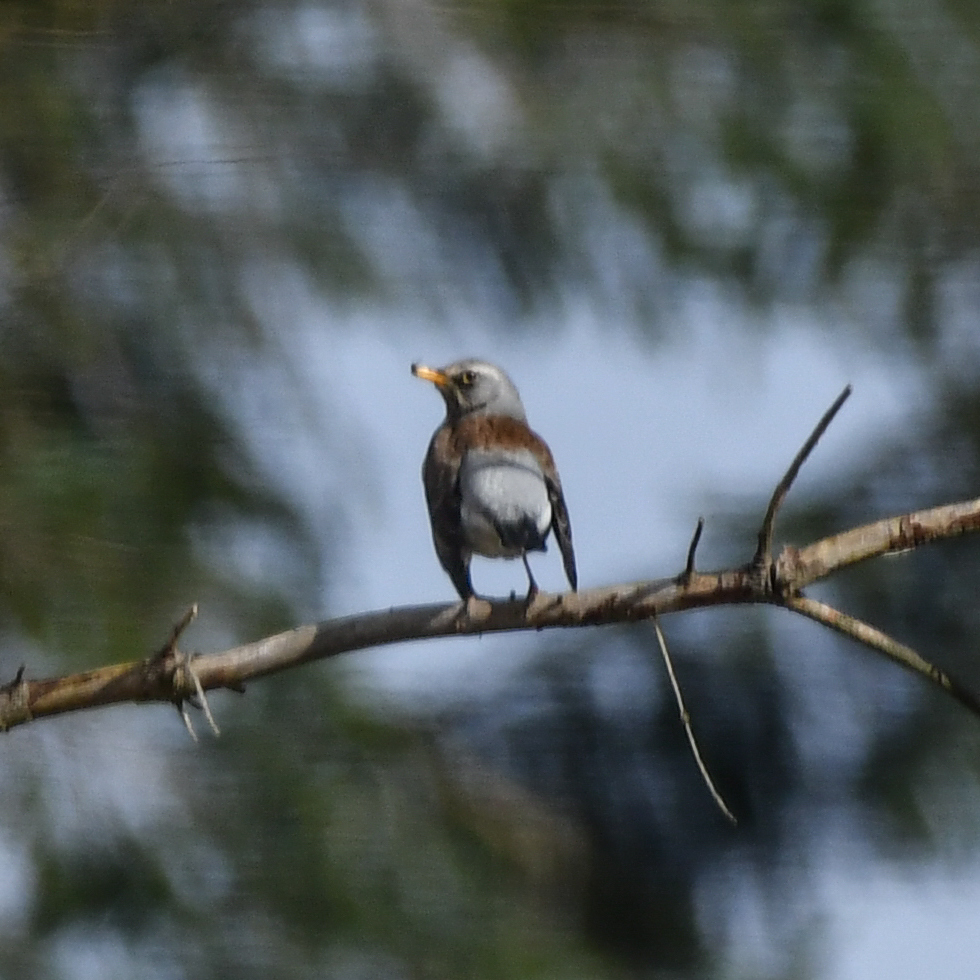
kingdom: Animalia
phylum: Chordata
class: Aves
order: Passeriformes
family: Turdidae
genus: Turdus
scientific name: Turdus pilaris
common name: Fieldfare
